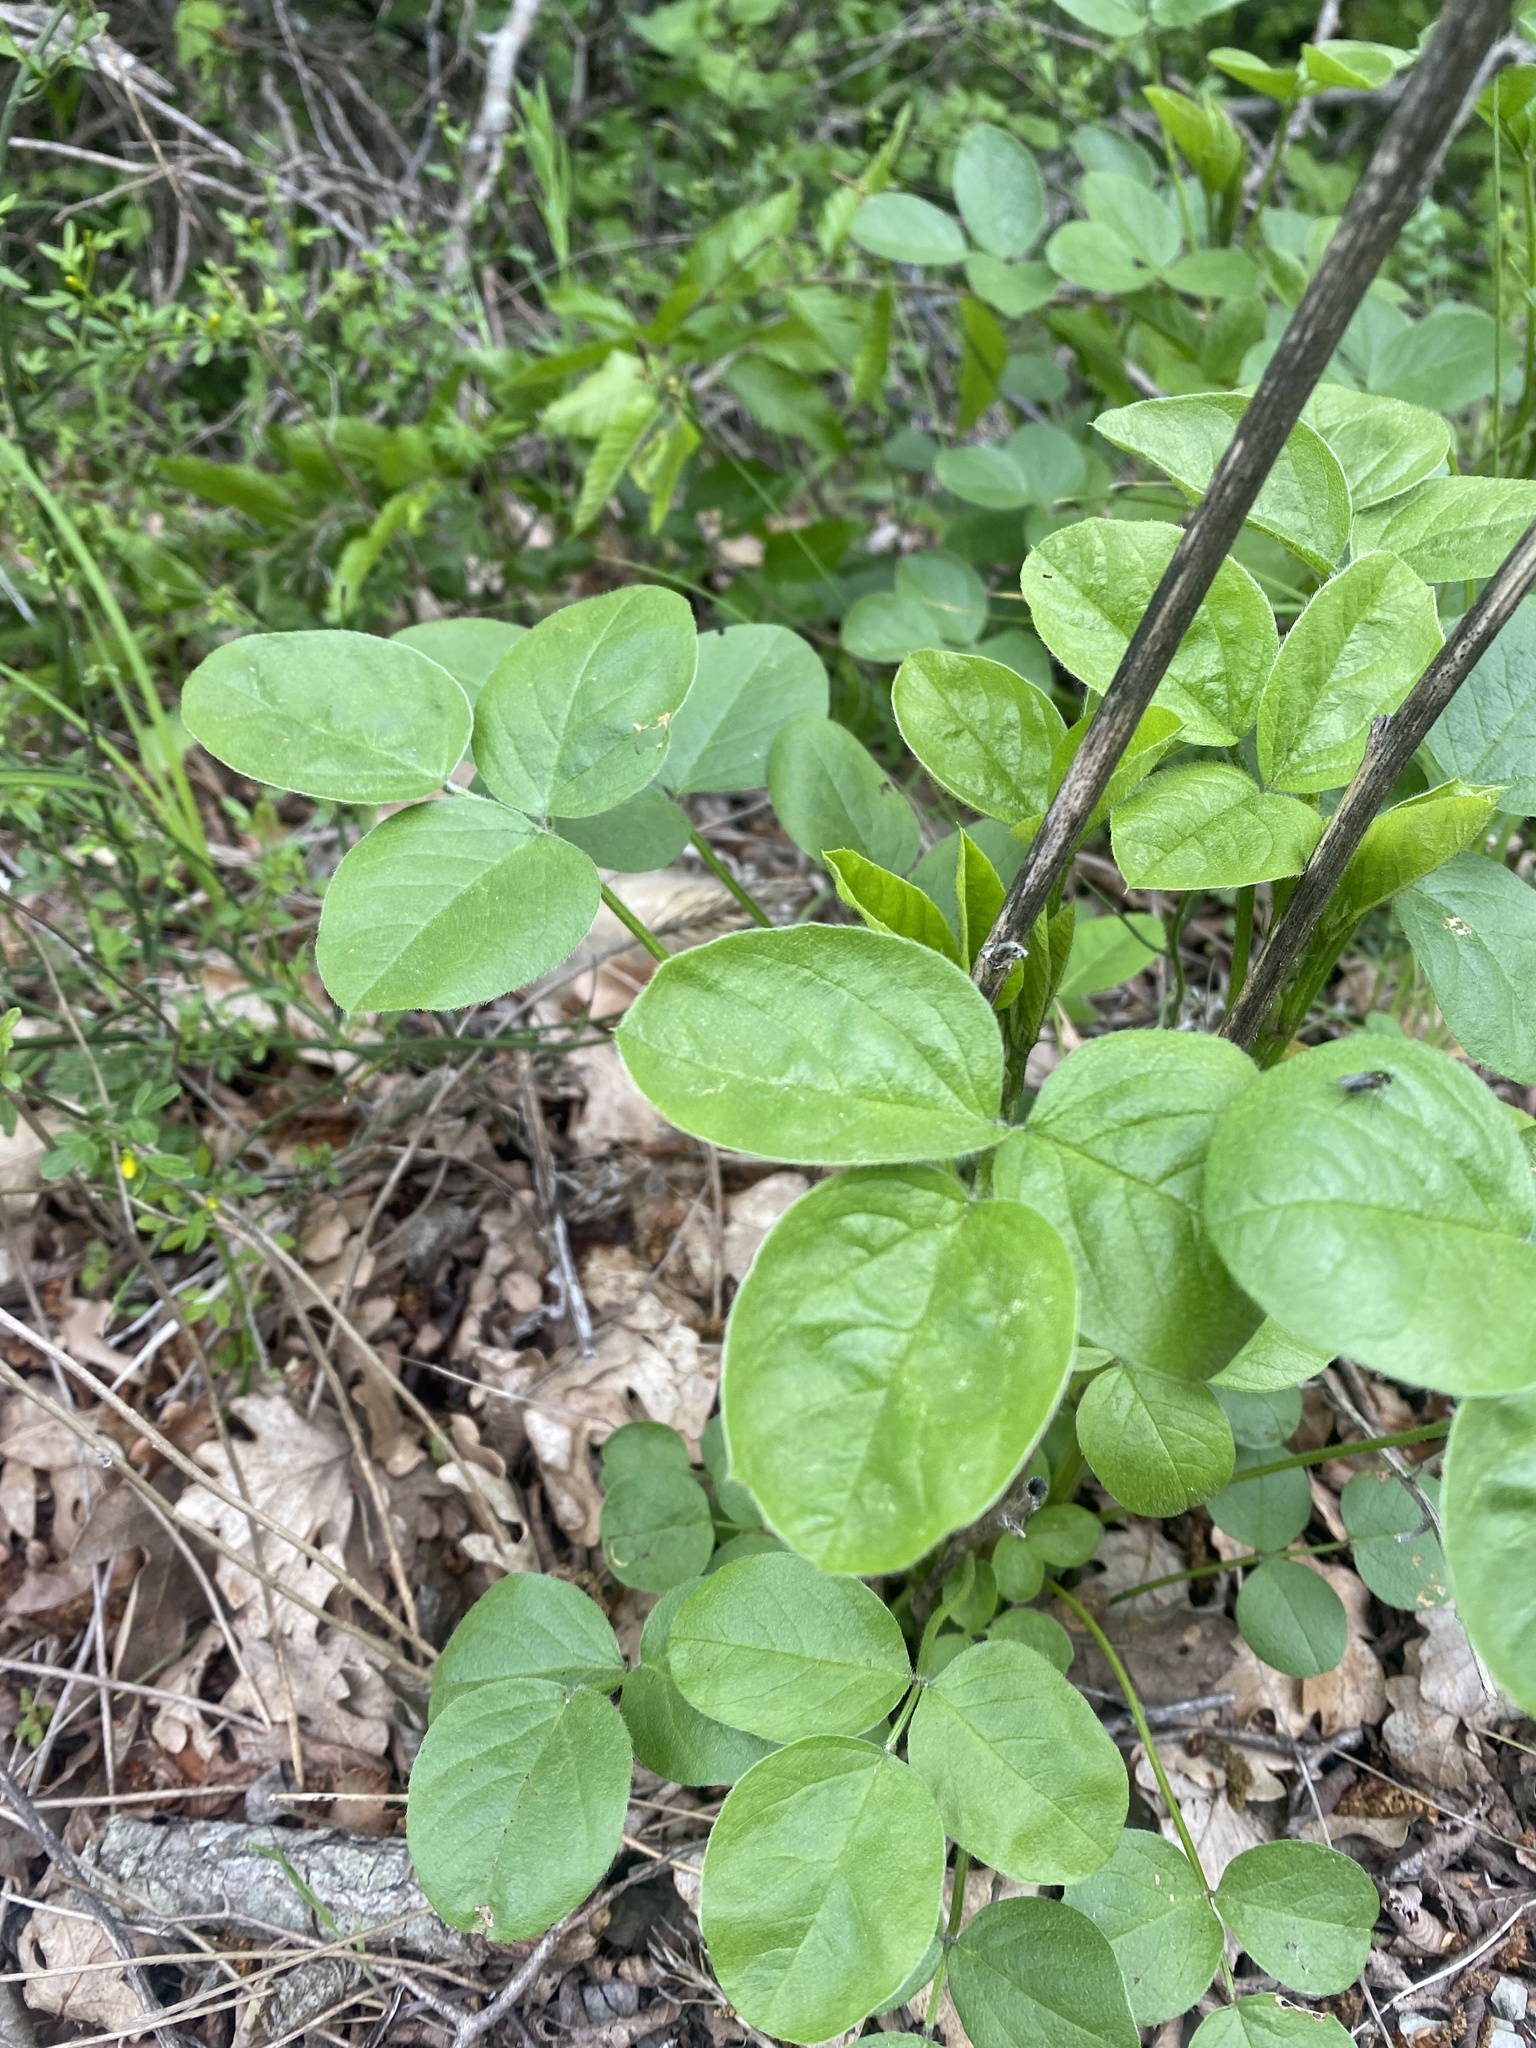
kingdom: Plantae
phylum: Tracheophyta
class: Magnoliopsida
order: Fabales
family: Fabaceae
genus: Bituminaria
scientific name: Bituminaria bituminosa
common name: Arabian pea
